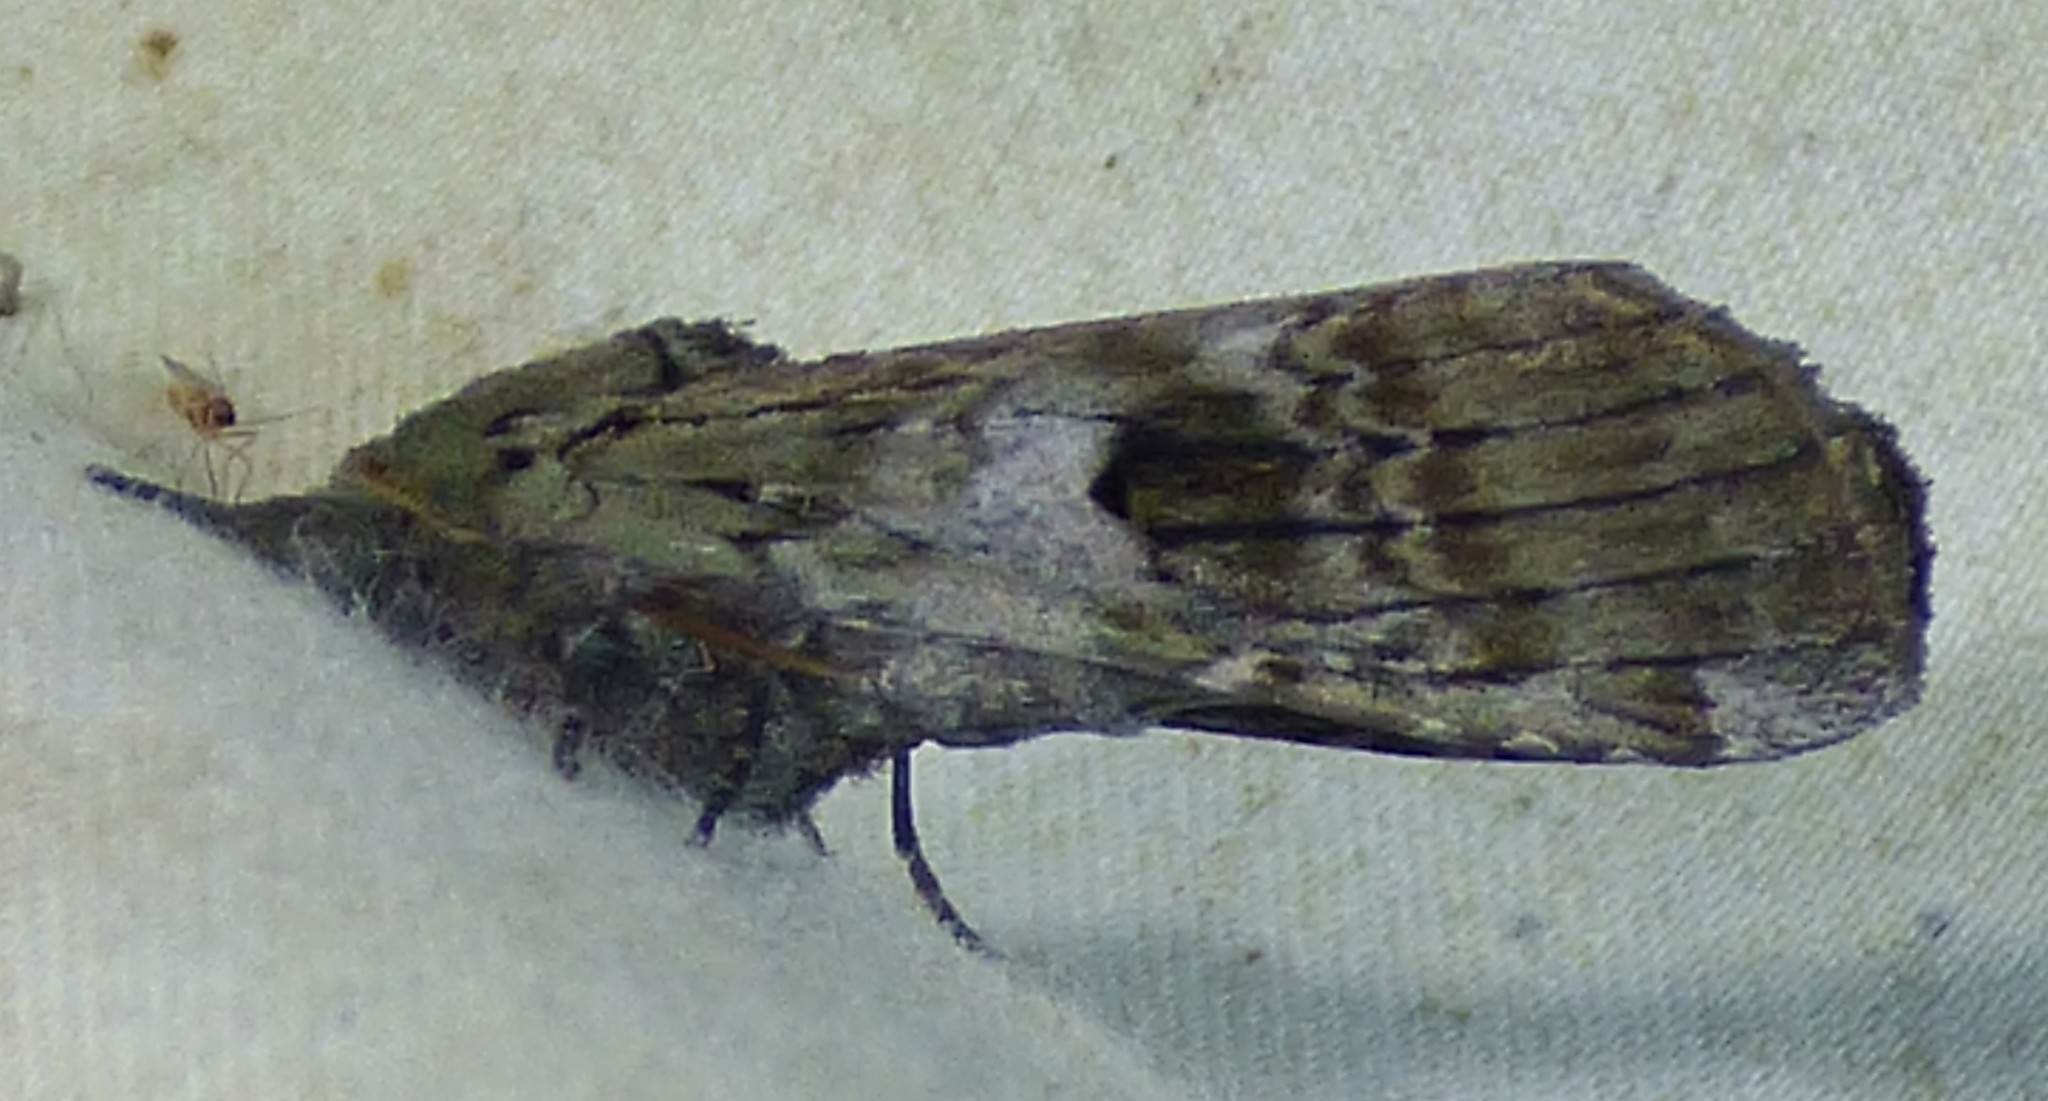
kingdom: Animalia
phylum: Arthropoda
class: Insecta
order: Lepidoptera
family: Notodontidae
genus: Schizura
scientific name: Schizura
